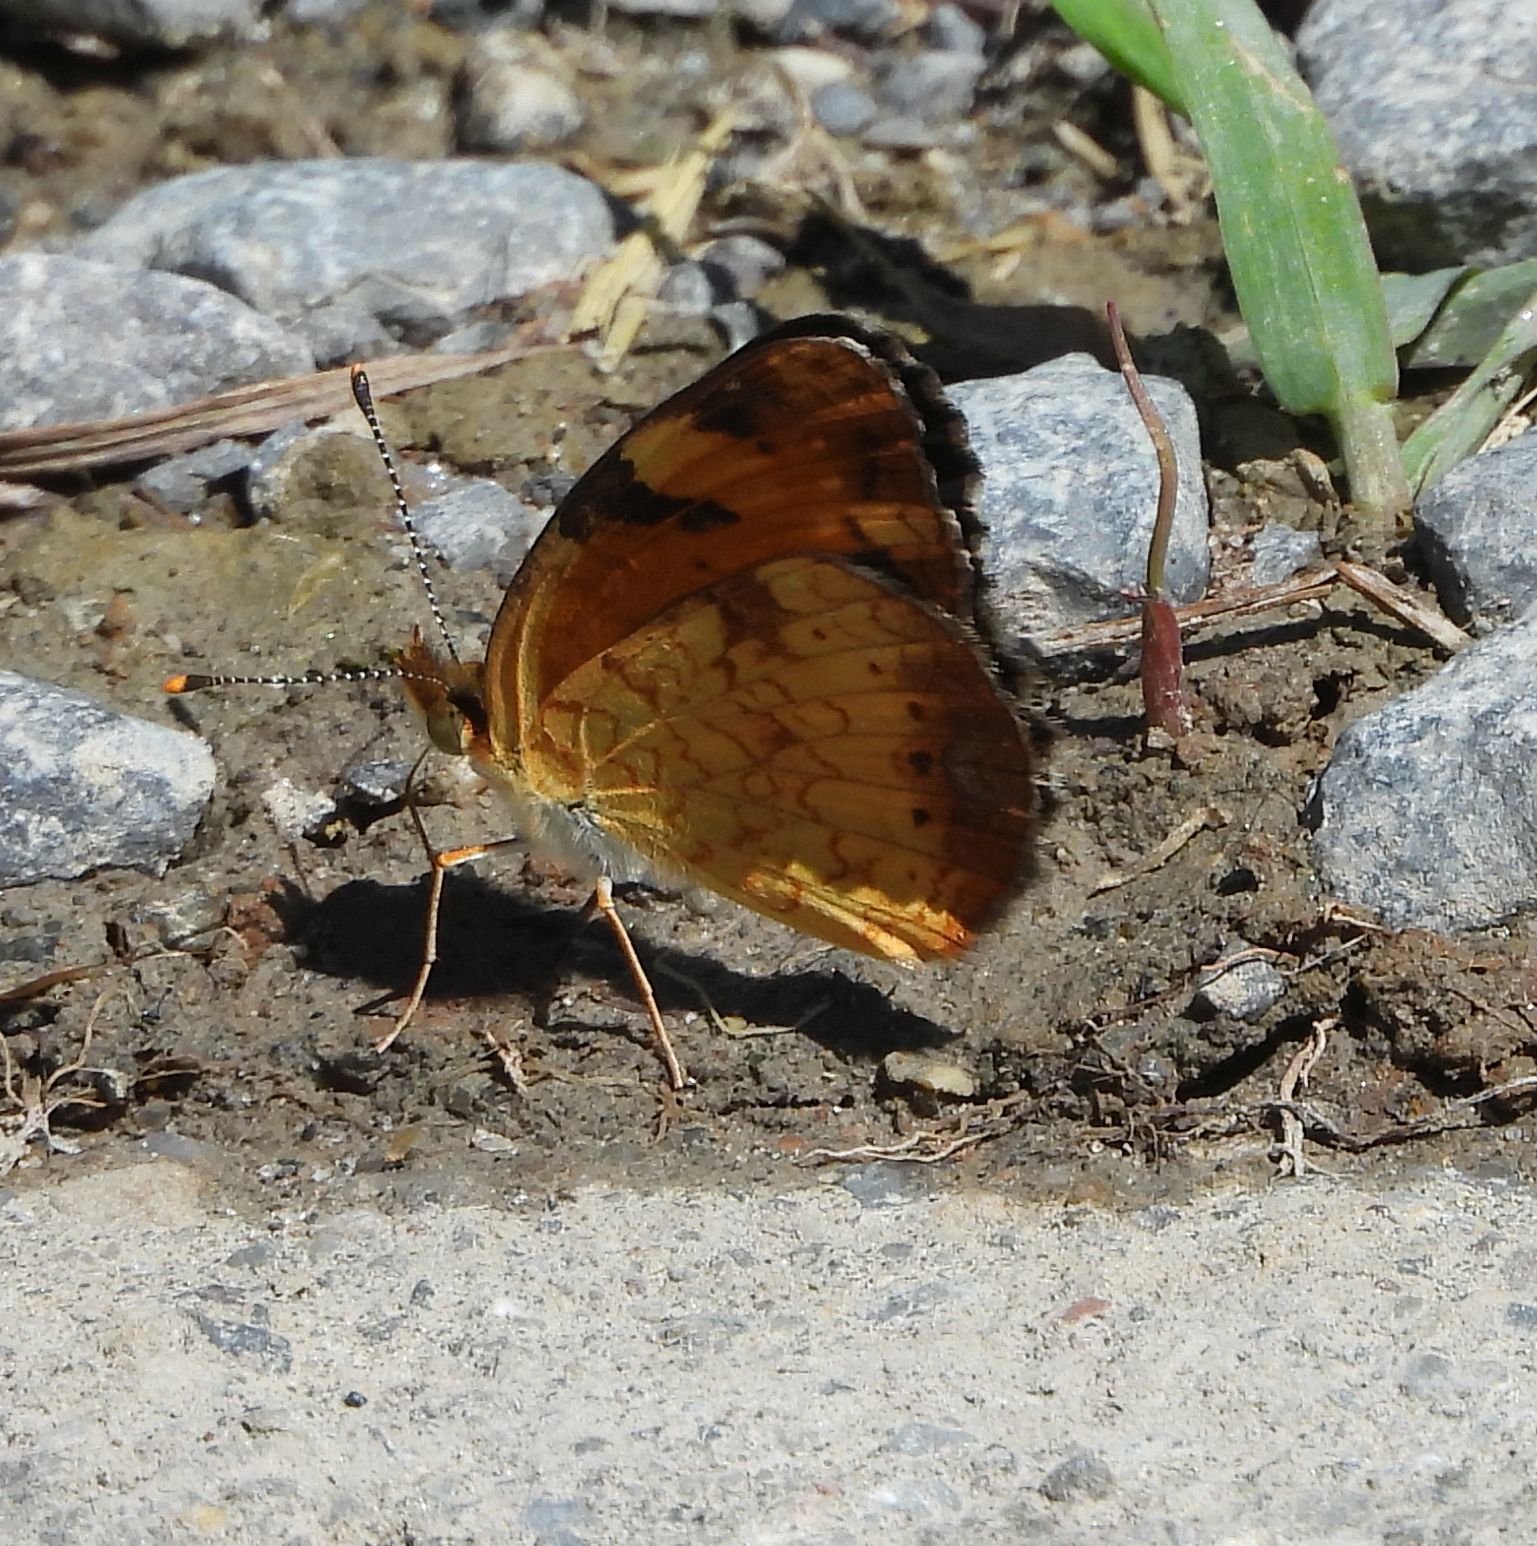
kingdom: Animalia
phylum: Arthropoda
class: Insecta
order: Lepidoptera
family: Nymphalidae
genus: Phyciodes
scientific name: Phyciodes tharos
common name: Pearl crescent
